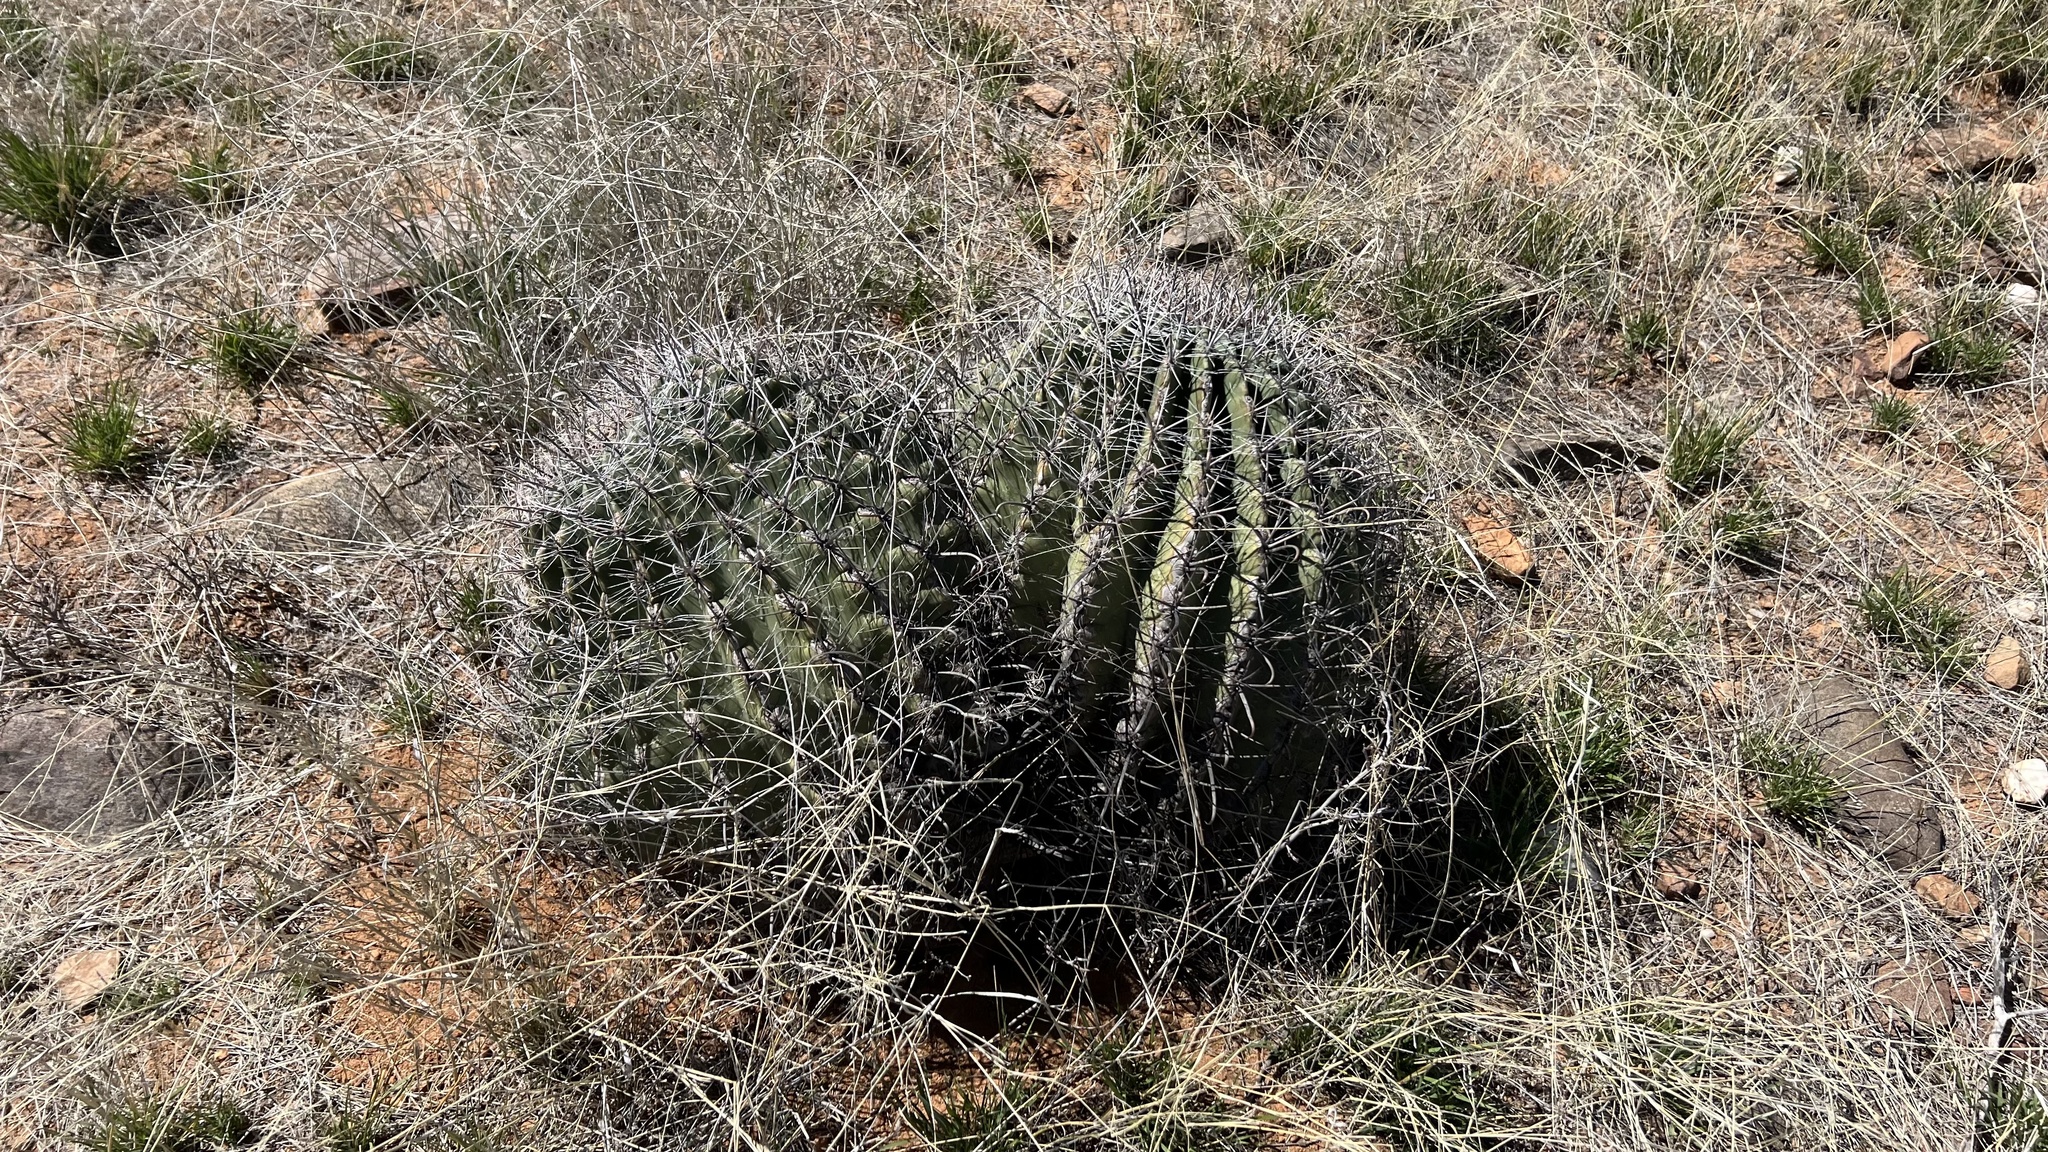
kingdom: Plantae
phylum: Tracheophyta
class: Magnoliopsida
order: Caryophyllales
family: Cactaceae
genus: Ferocactus
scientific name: Ferocactus wislizeni
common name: Candy barrel cactus
